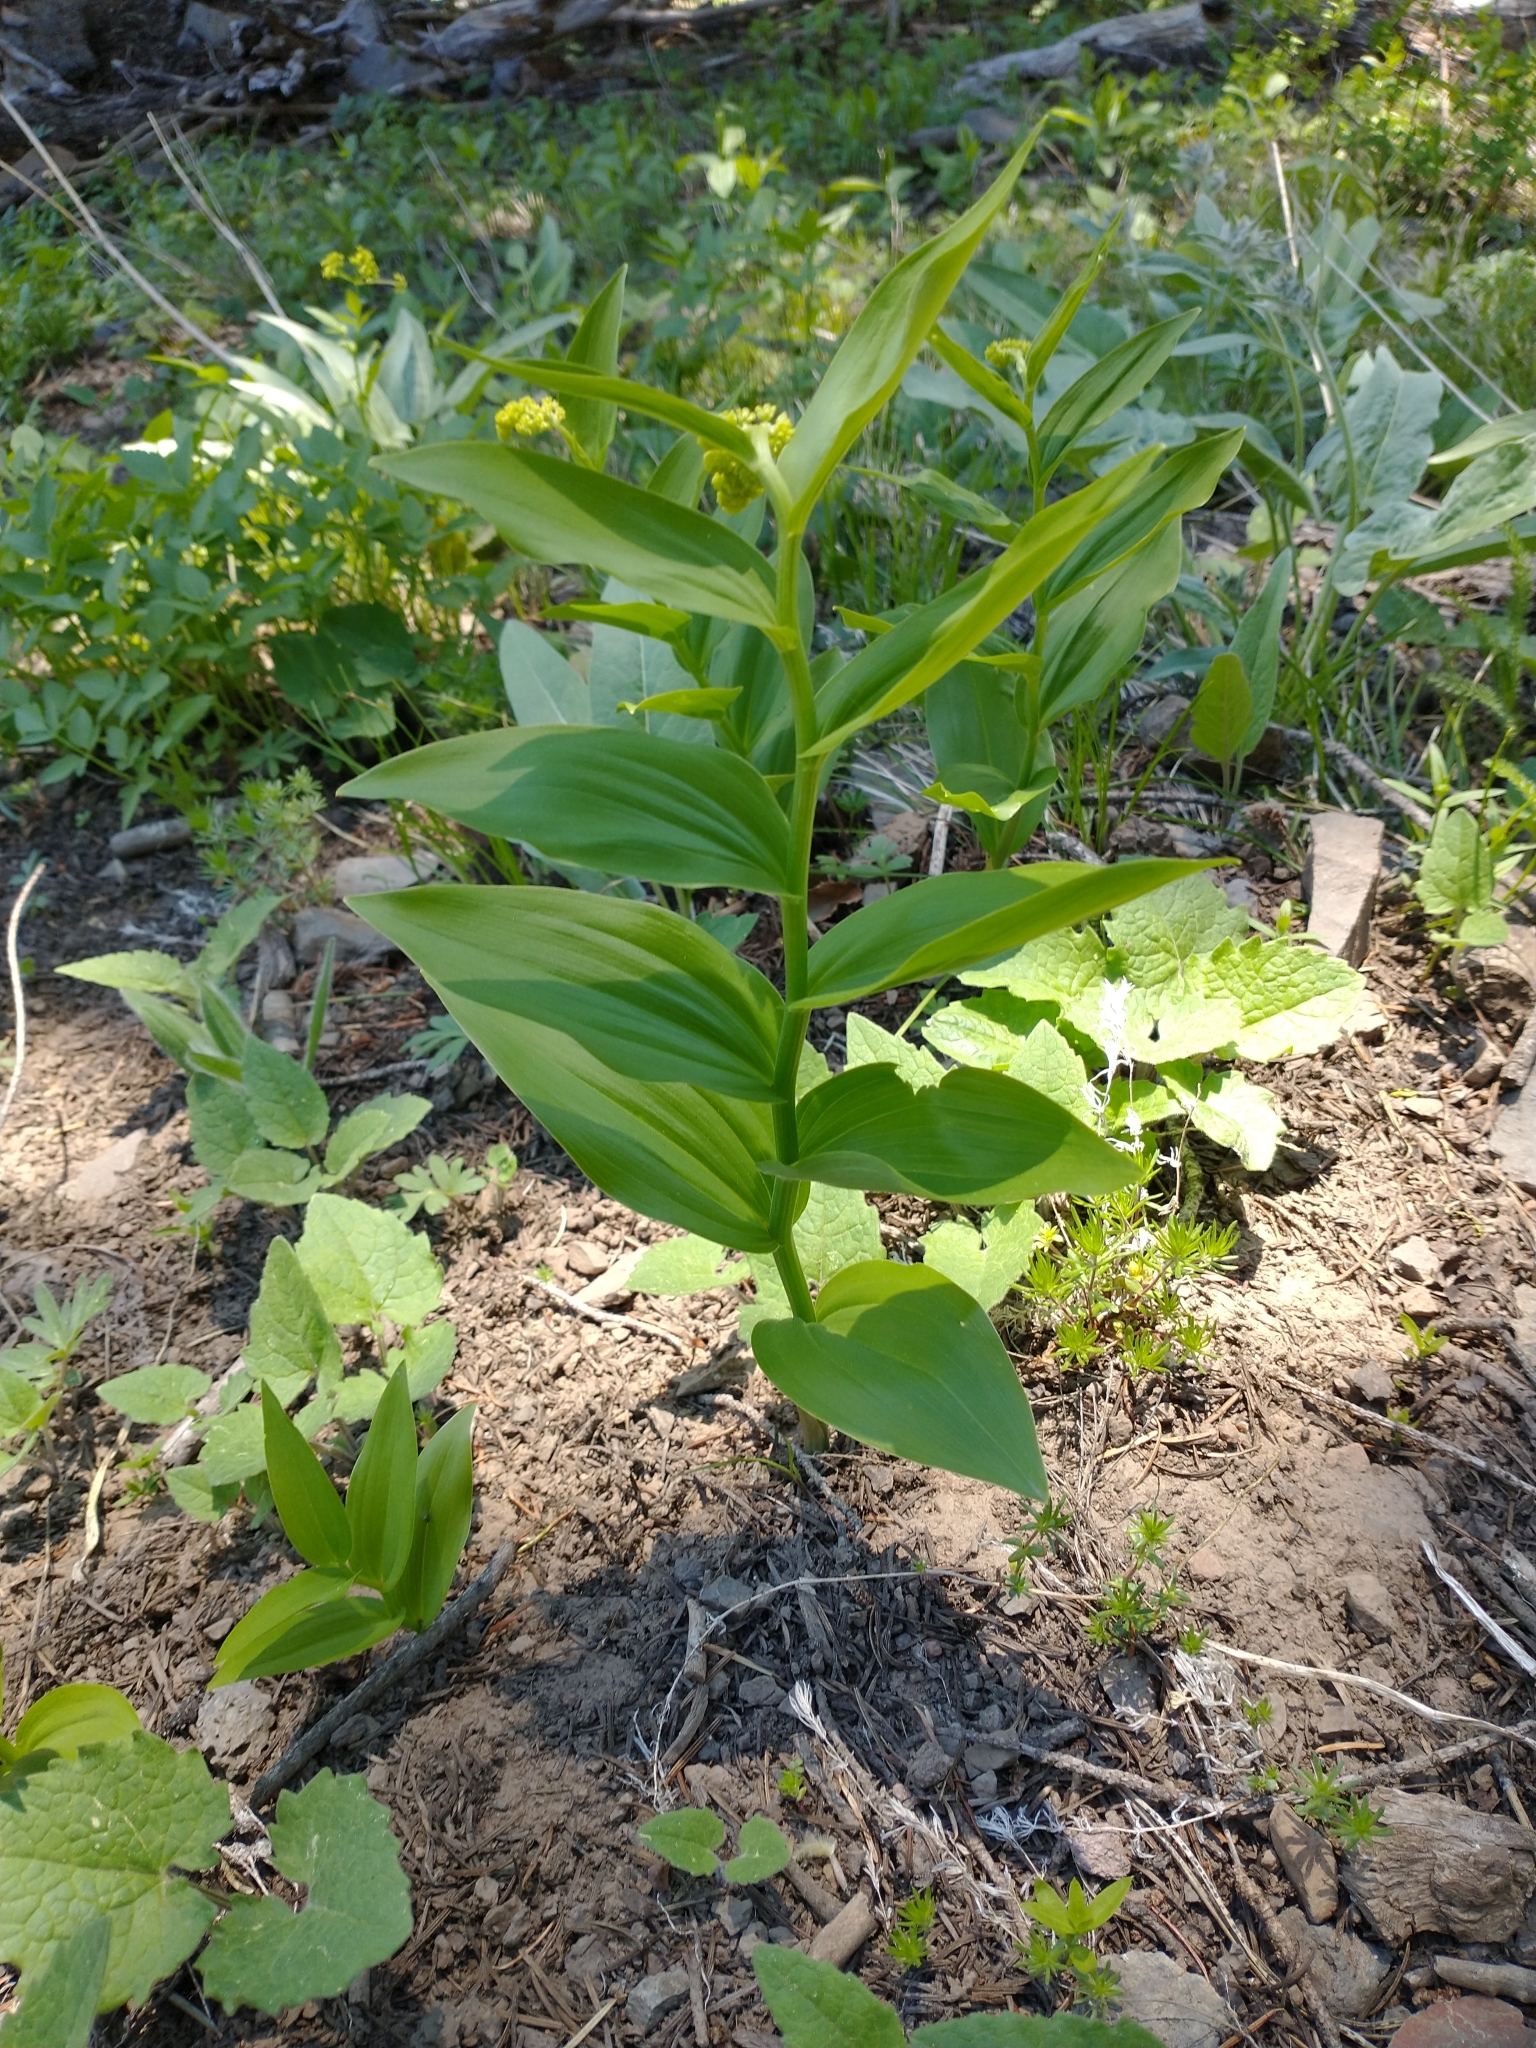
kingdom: Plantae
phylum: Tracheophyta
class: Liliopsida
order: Asparagales
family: Asparagaceae
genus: Maianthemum
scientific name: Maianthemum racemosum
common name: False spikenard
